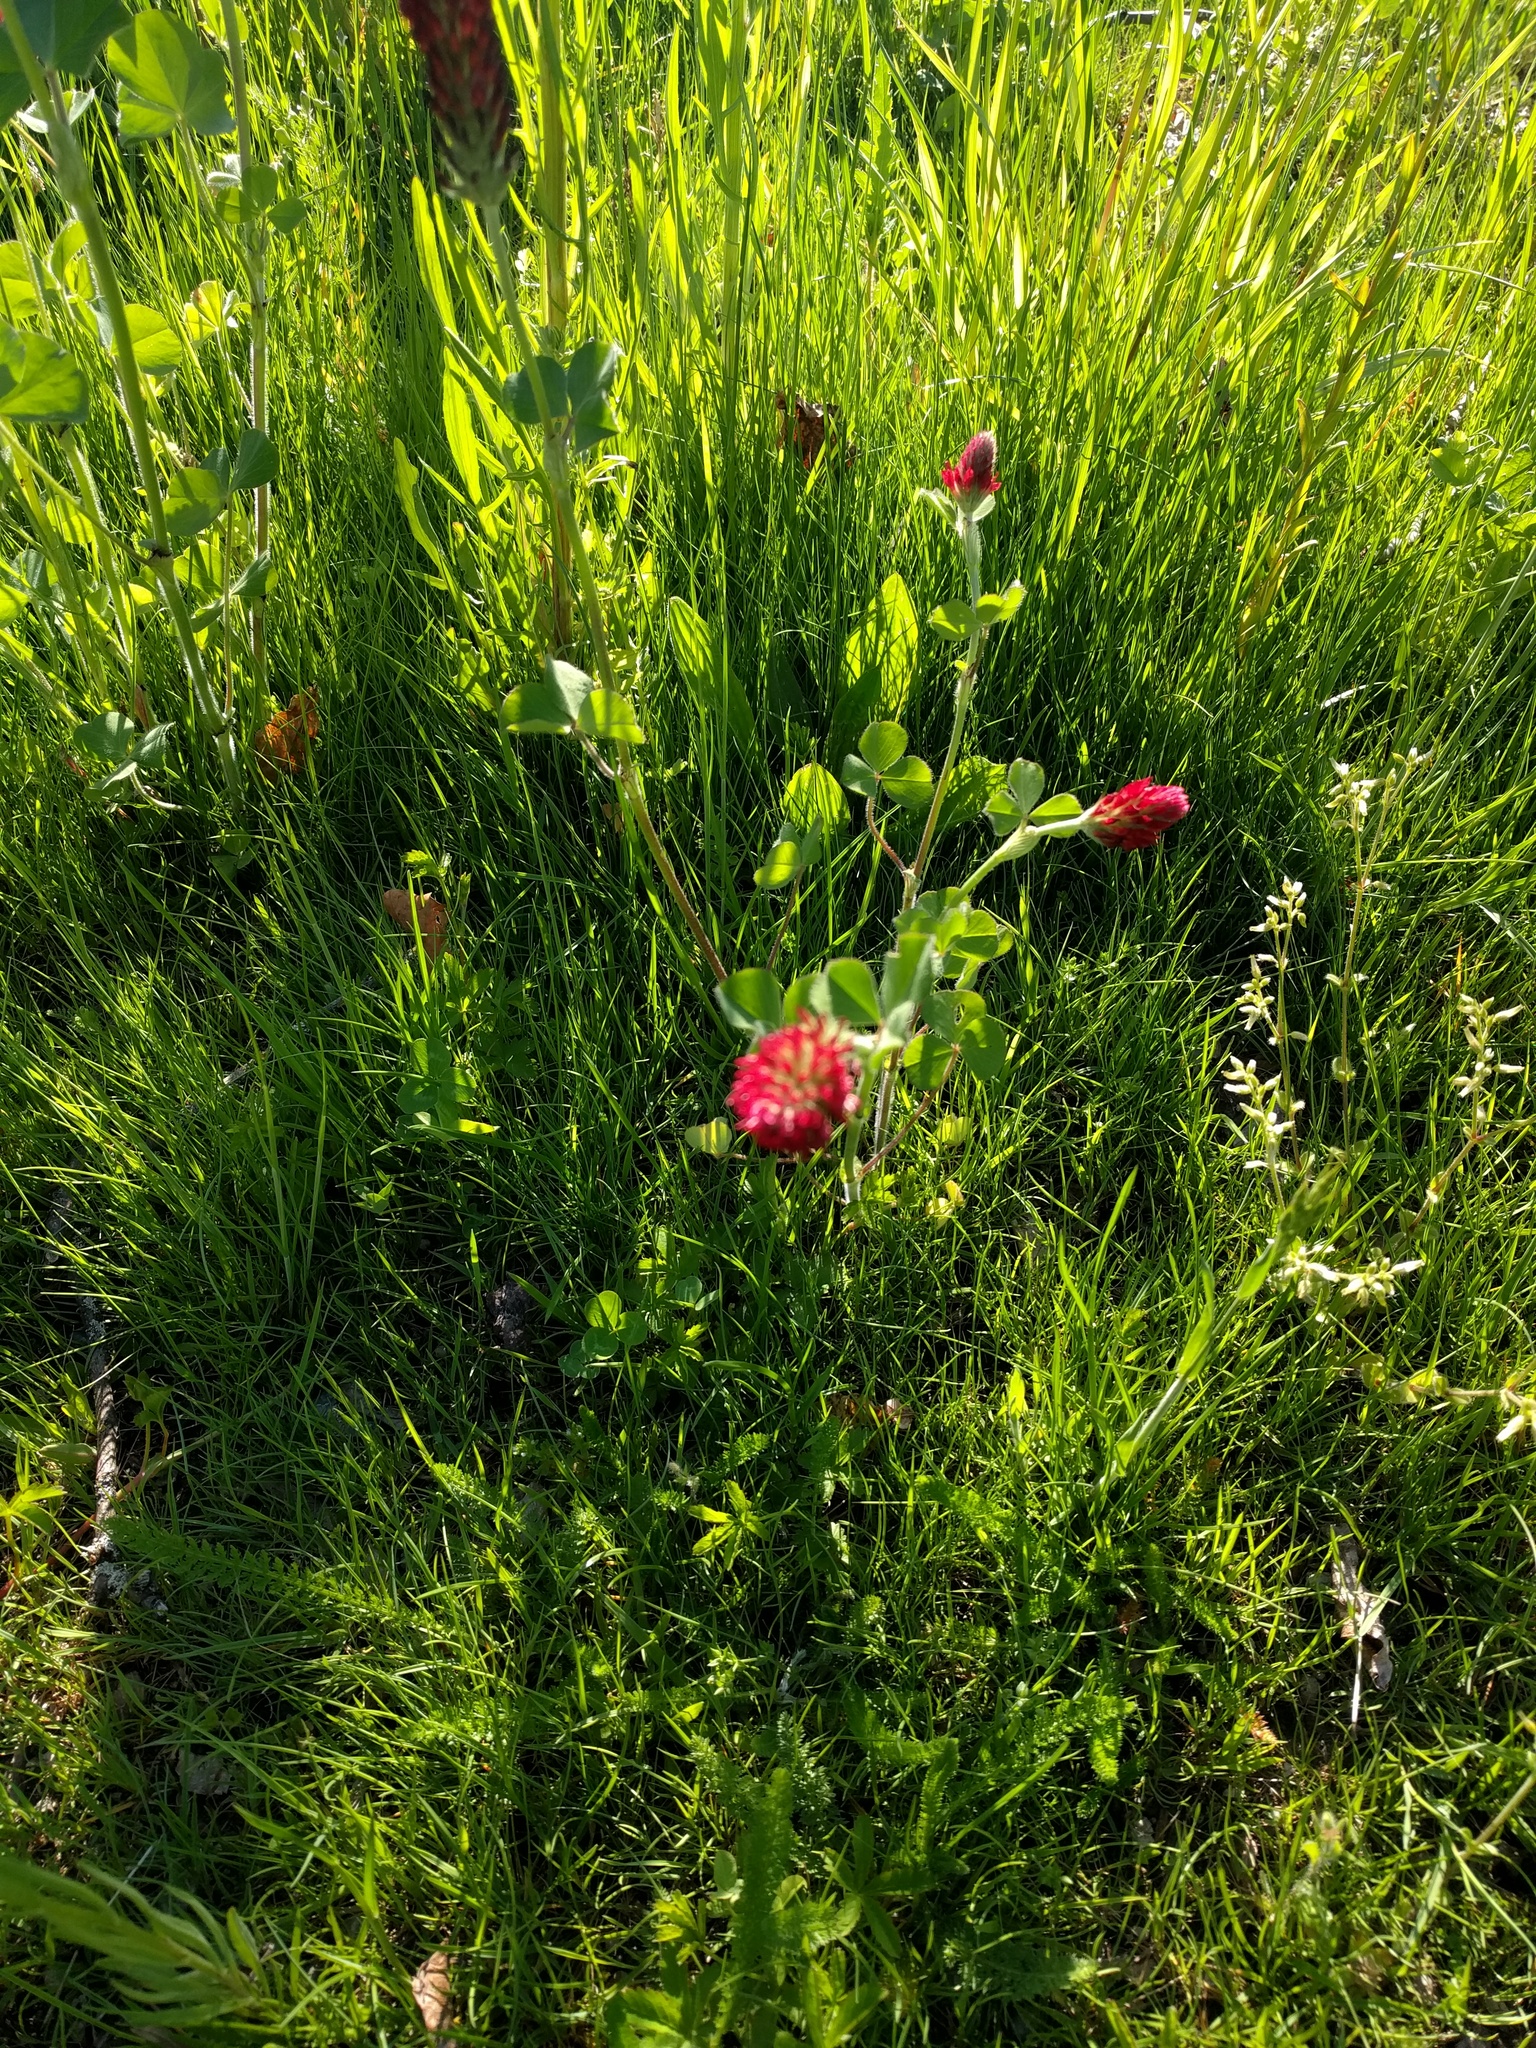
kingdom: Plantae
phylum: Tracheophyta
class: Magnoliopsida
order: Fabales
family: Fabaceae
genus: Trifolium
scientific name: Trifolium incarnatum
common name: Crimson clover
